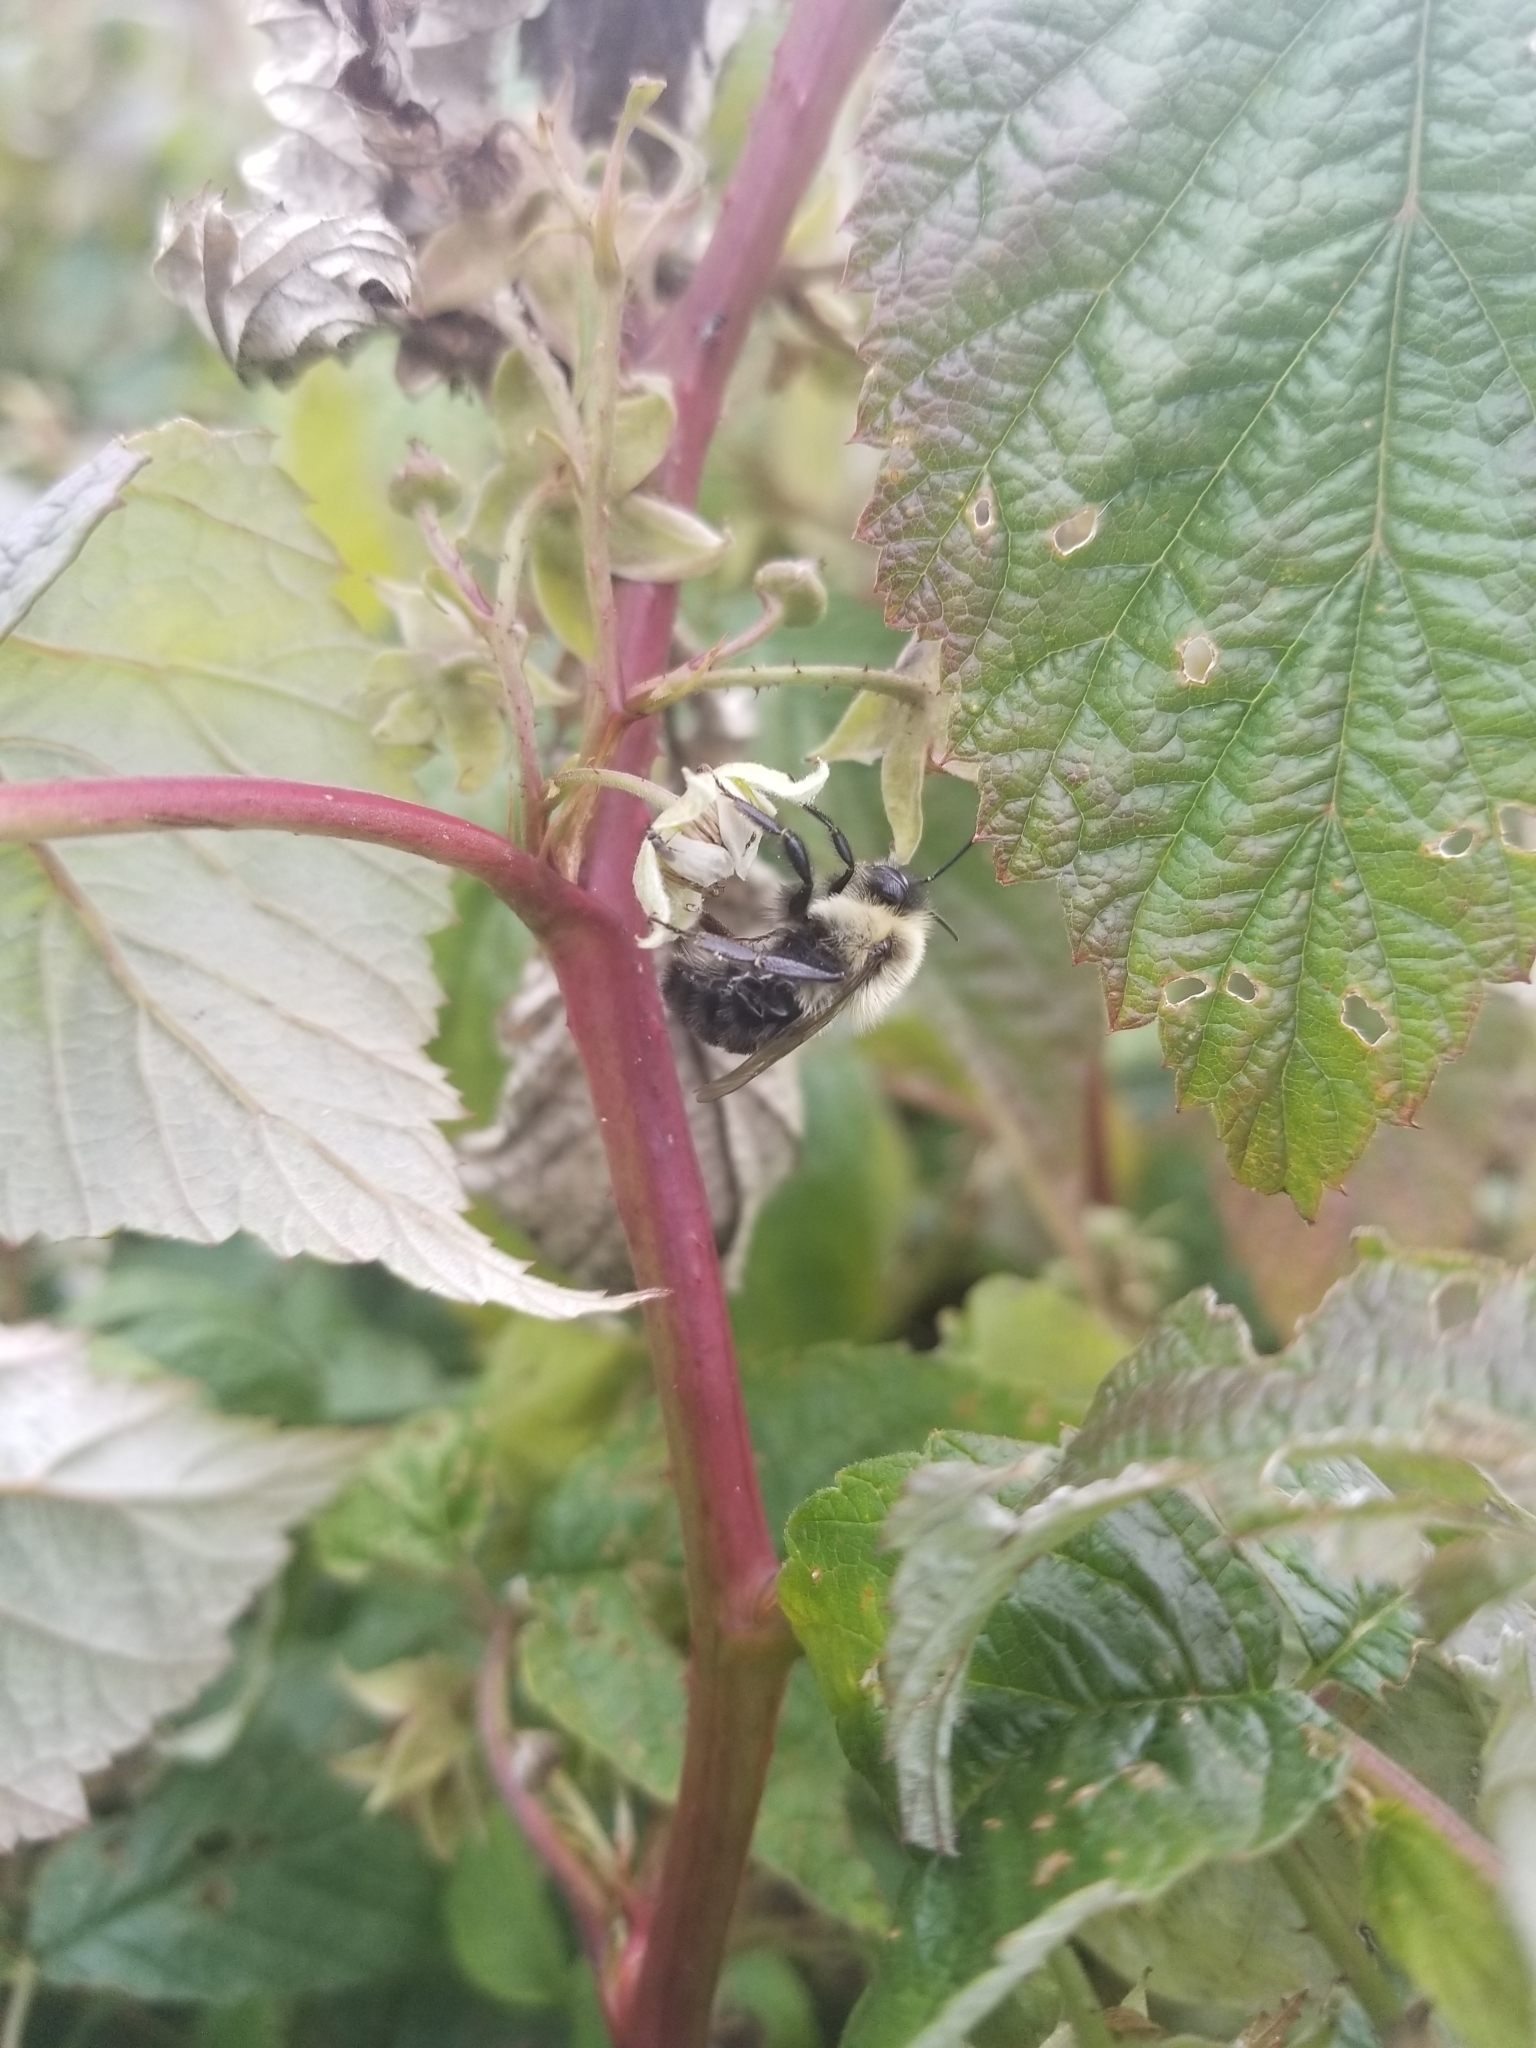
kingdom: Animalia
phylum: Arthropoda
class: Insecta
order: Hymenoptera
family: Apidae
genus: Bombus
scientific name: Bombus impatiens
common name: Common eastern bumble bee
